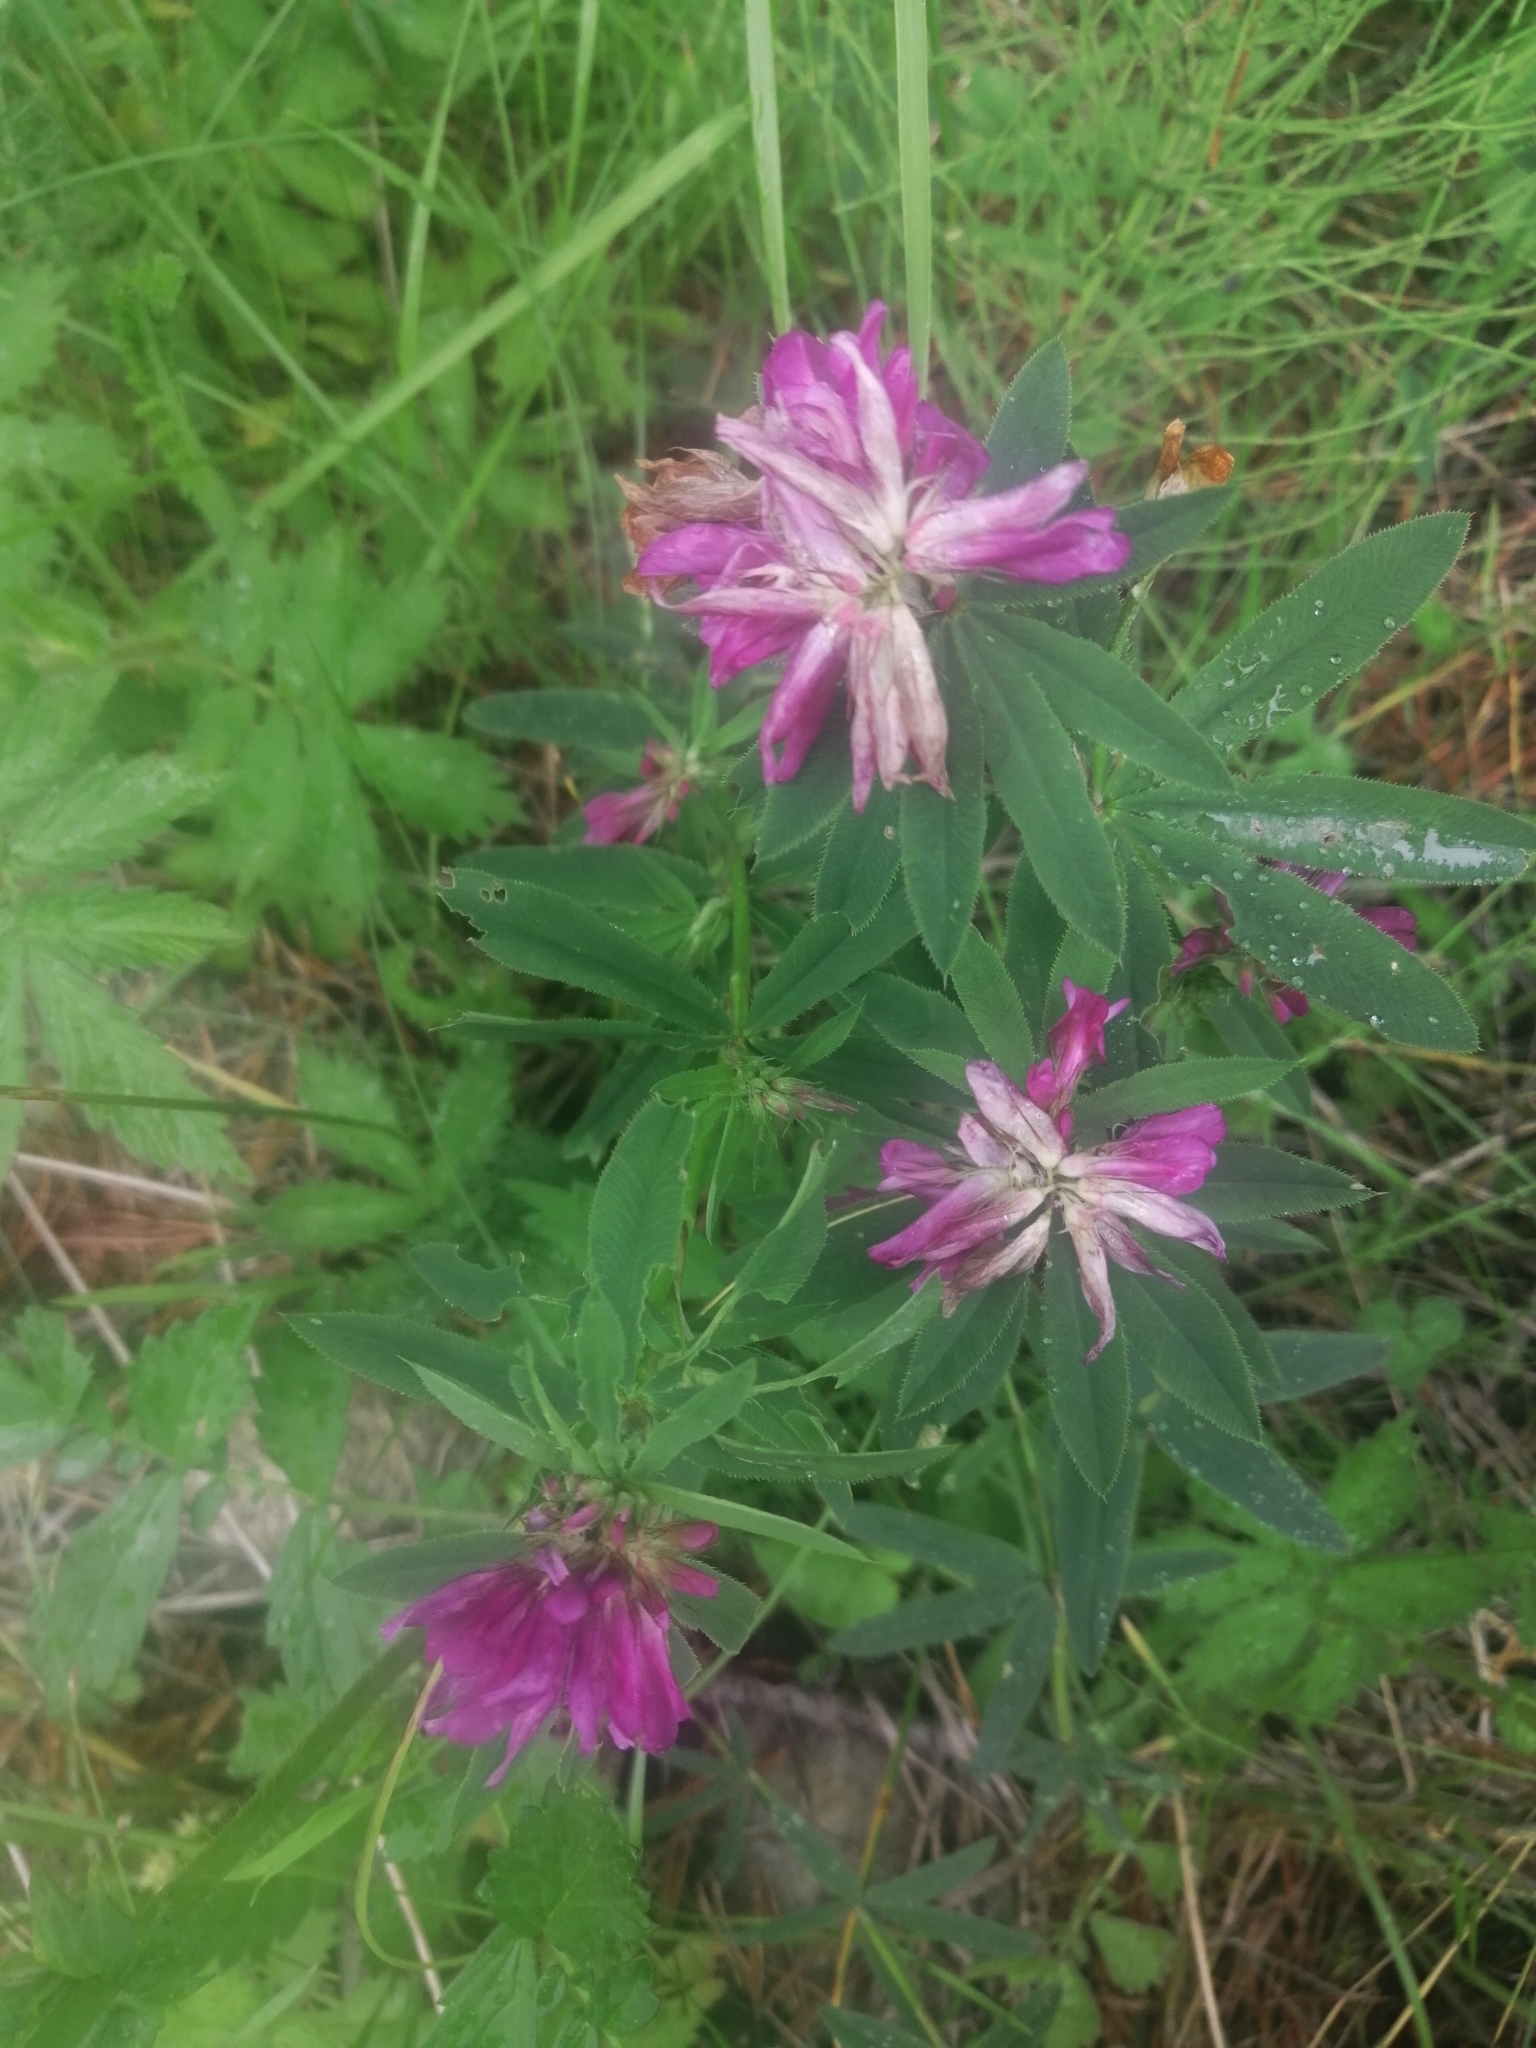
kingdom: Plantae
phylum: Tracheophyta
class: Magnoliopsida
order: Fabales
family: Fabaceae
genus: Trifolium
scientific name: Trifolium lupinaster
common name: Lupine clover
